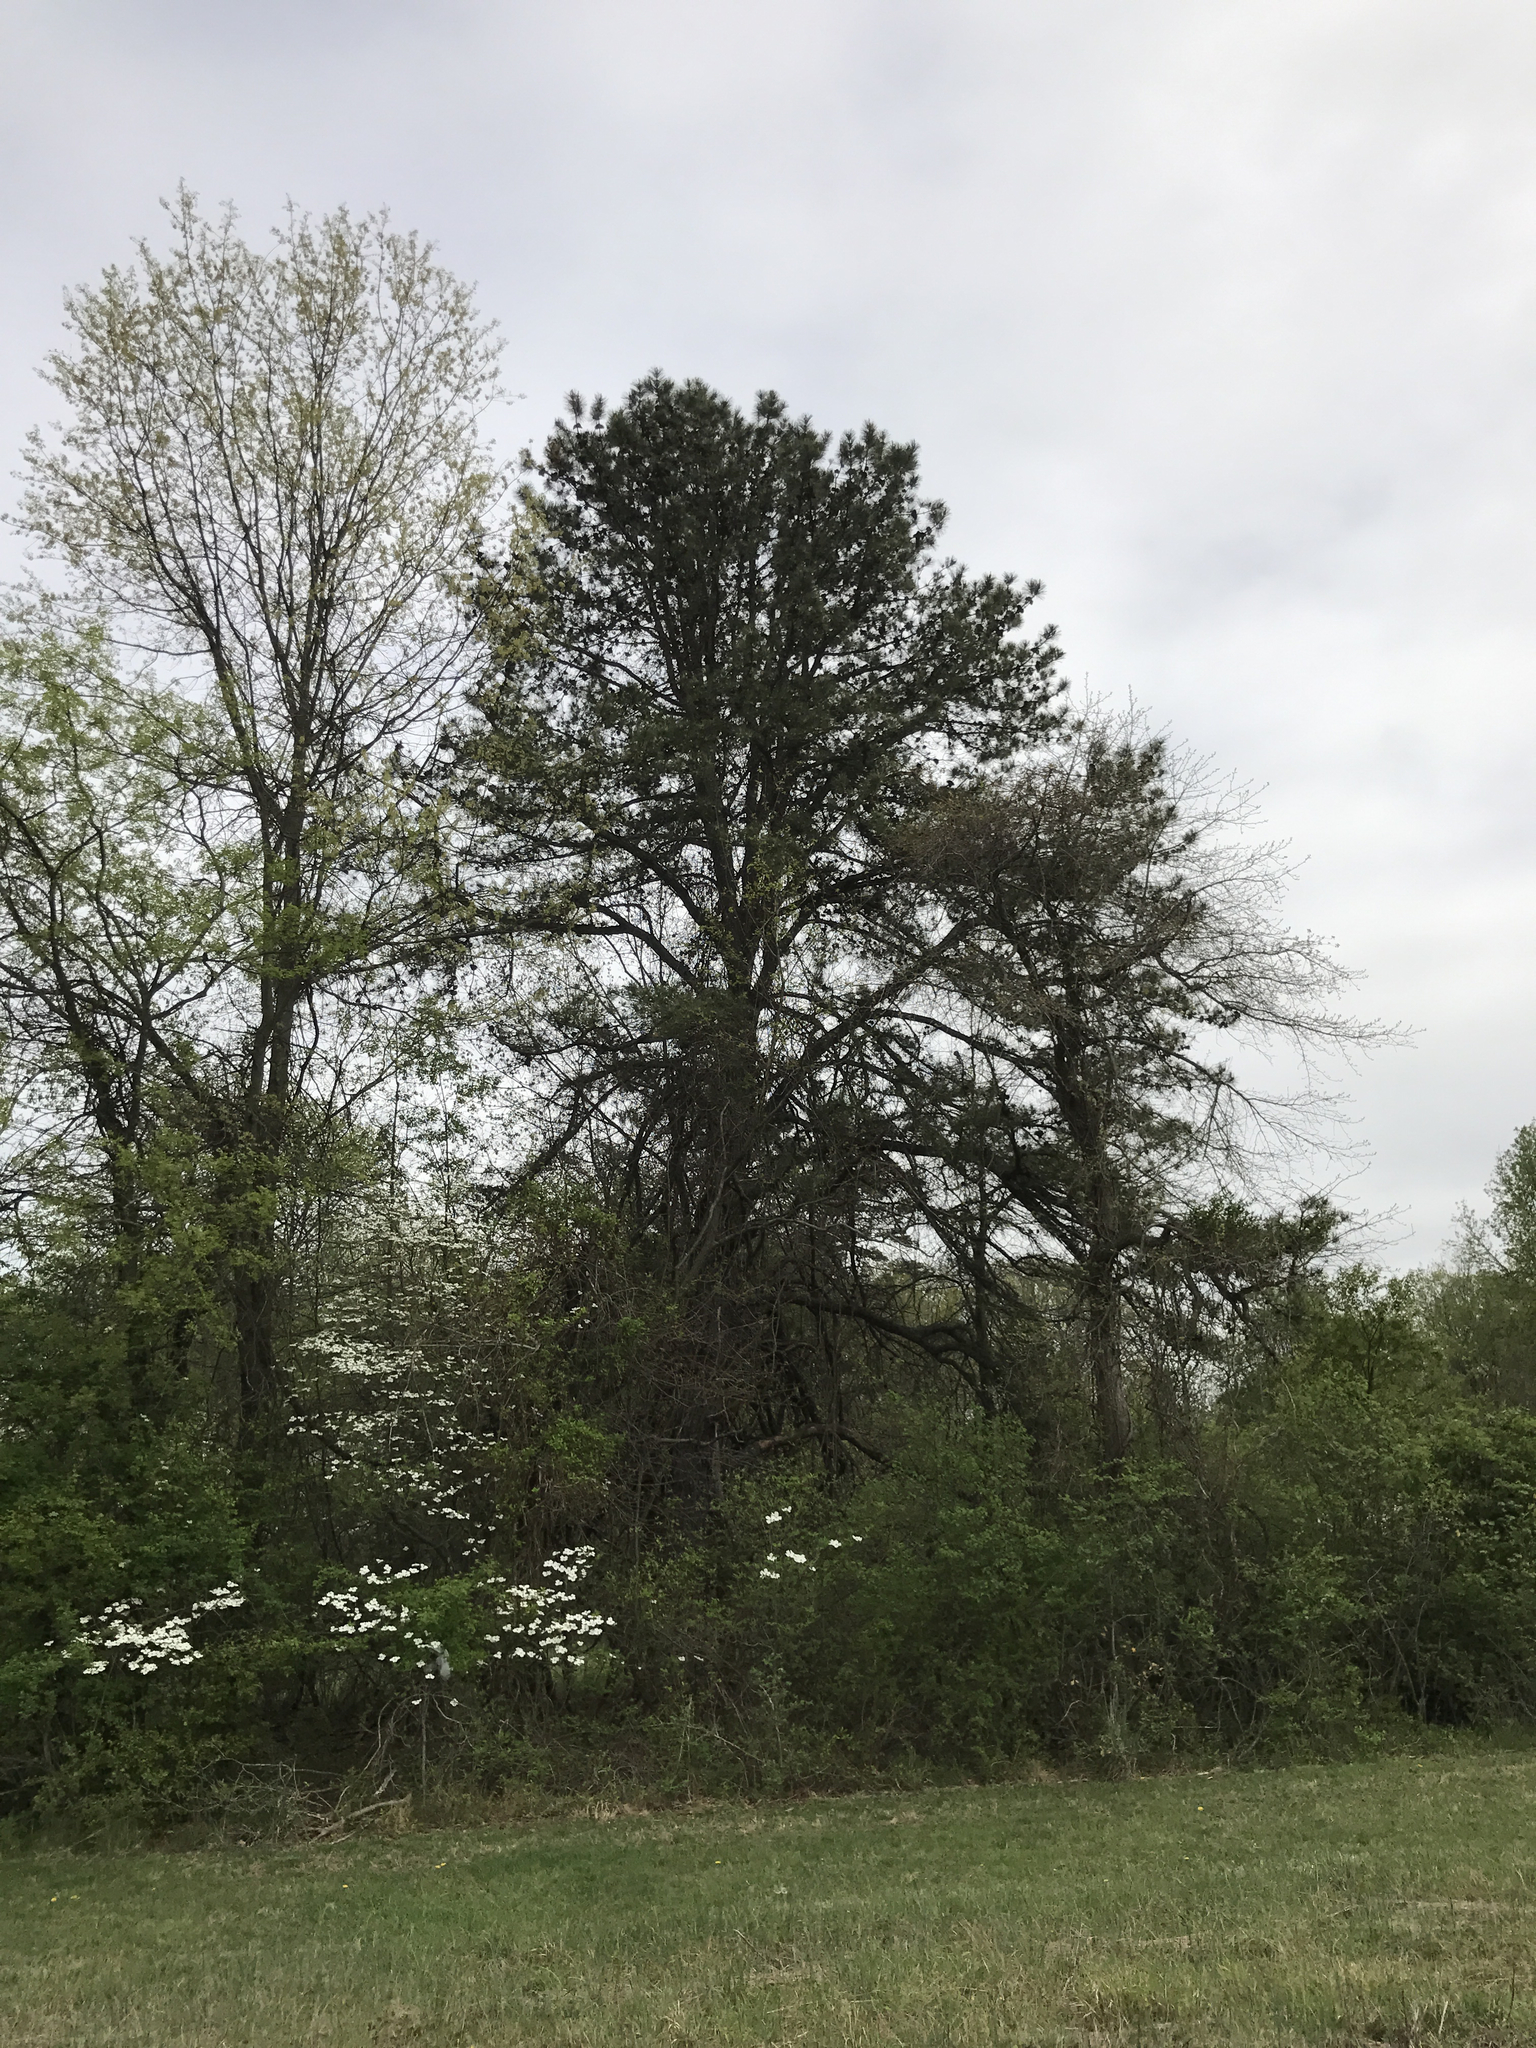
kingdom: Plantae
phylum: Tracheophyta
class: Pinopsida
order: Pinales
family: Pinaceae
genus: Pinus
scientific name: Pinus rigida
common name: Pitch pine
